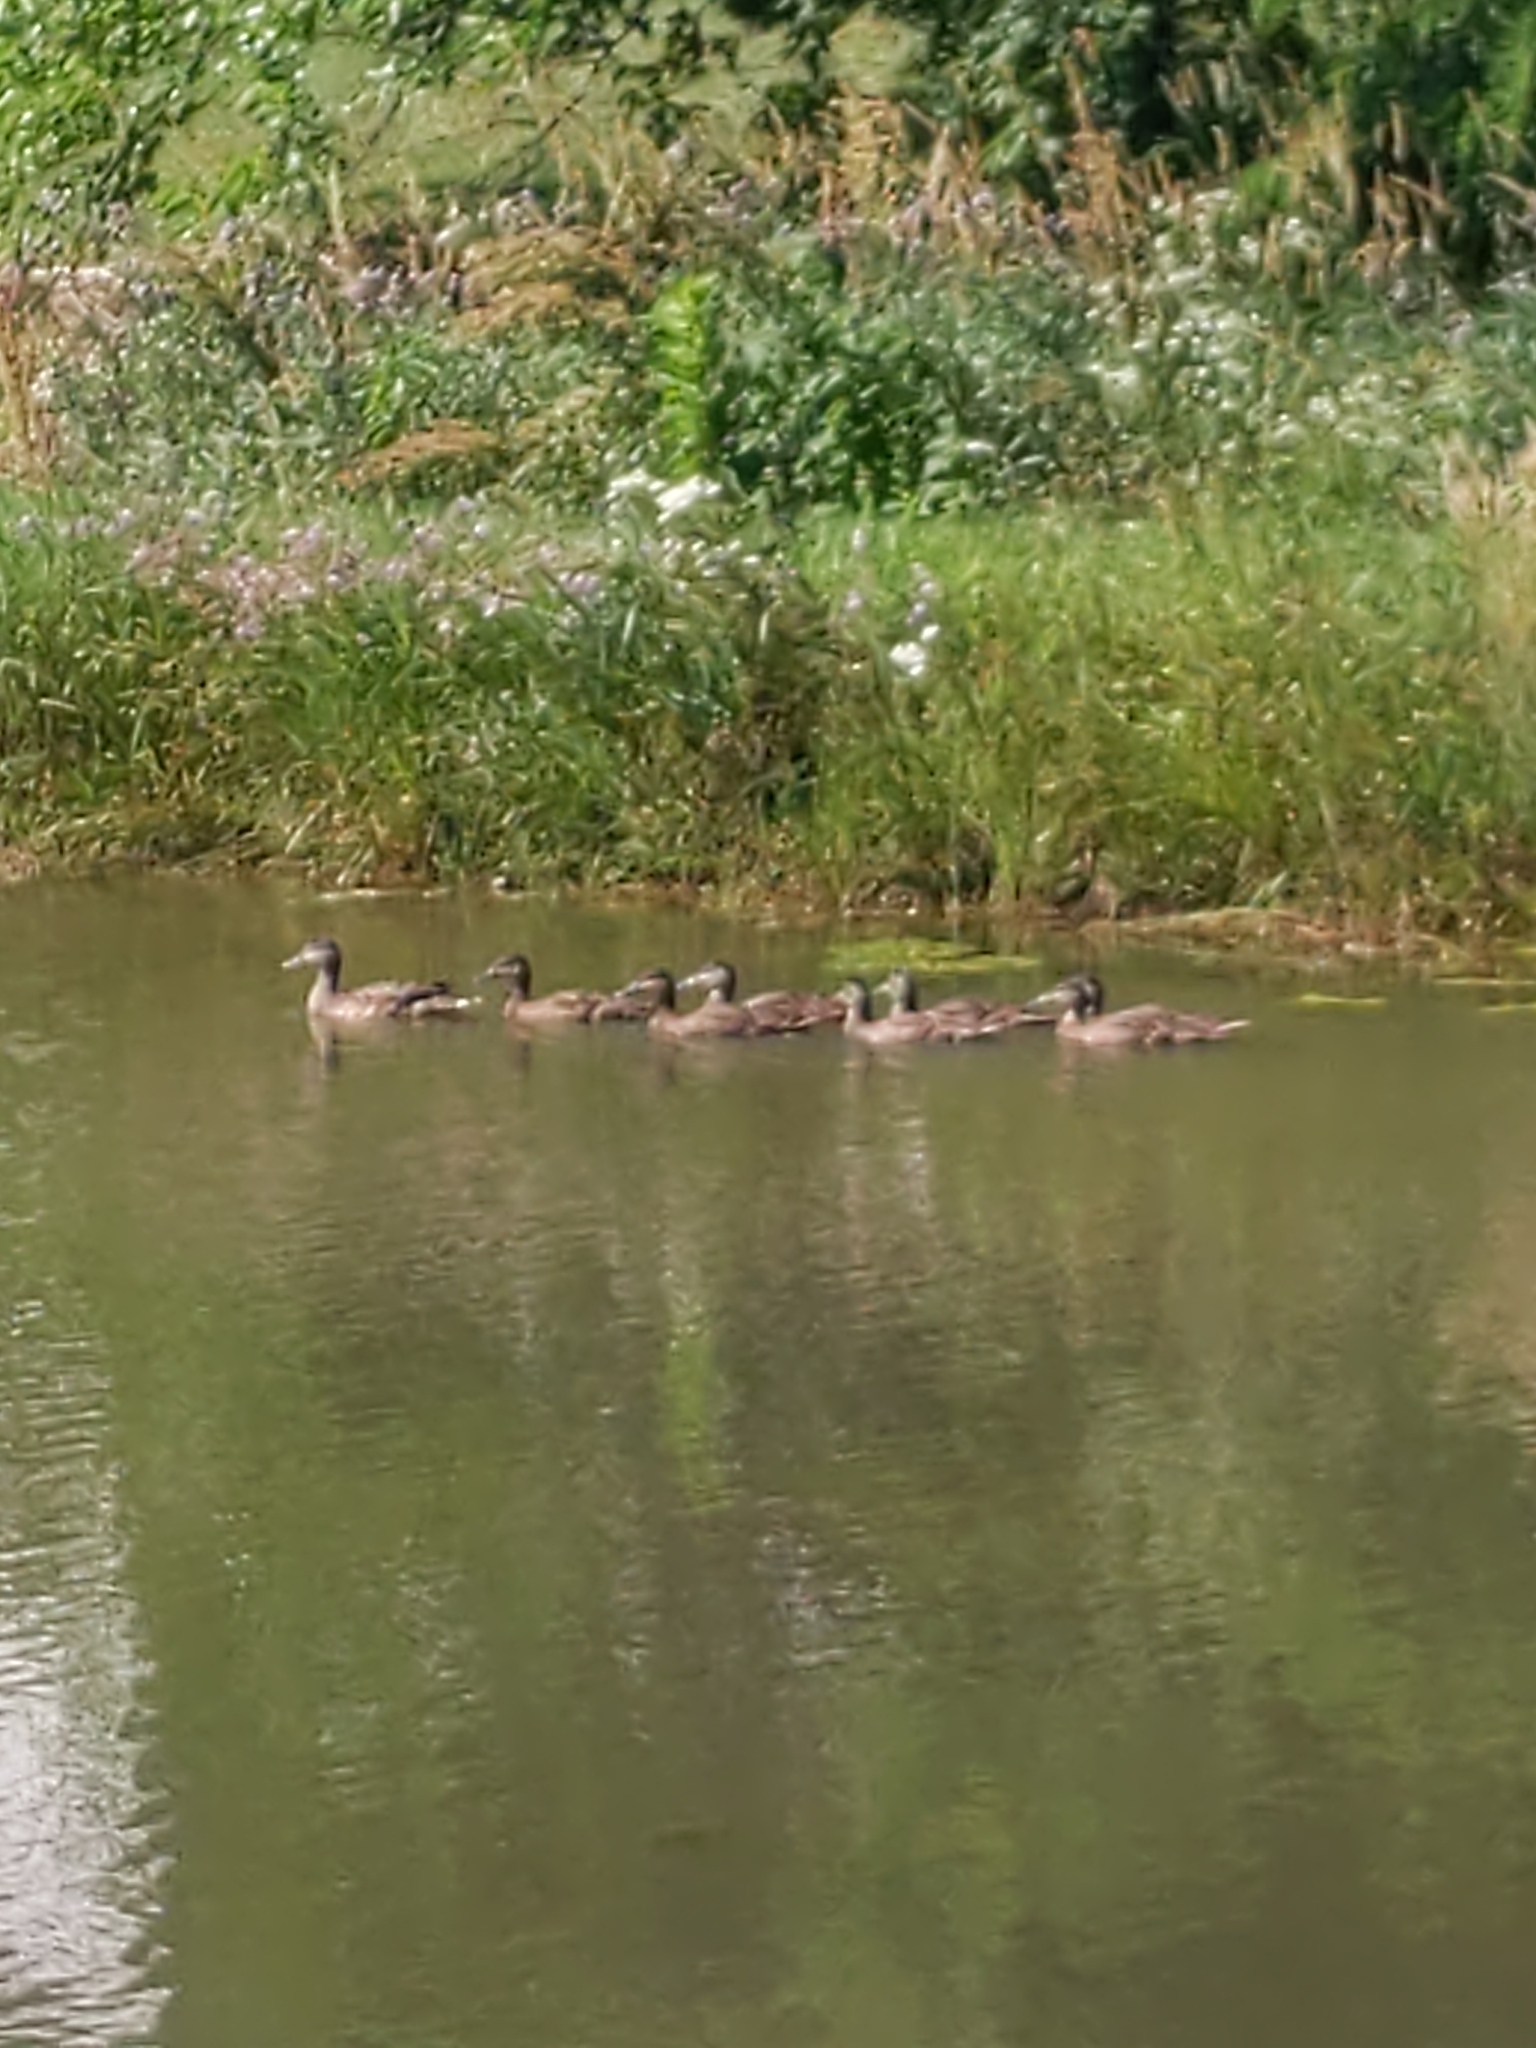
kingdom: Animalia
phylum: Chordata
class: Aves
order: Anseriformes
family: Anatidae
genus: Anas
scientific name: Anas platyrhynchos
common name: Mallard
